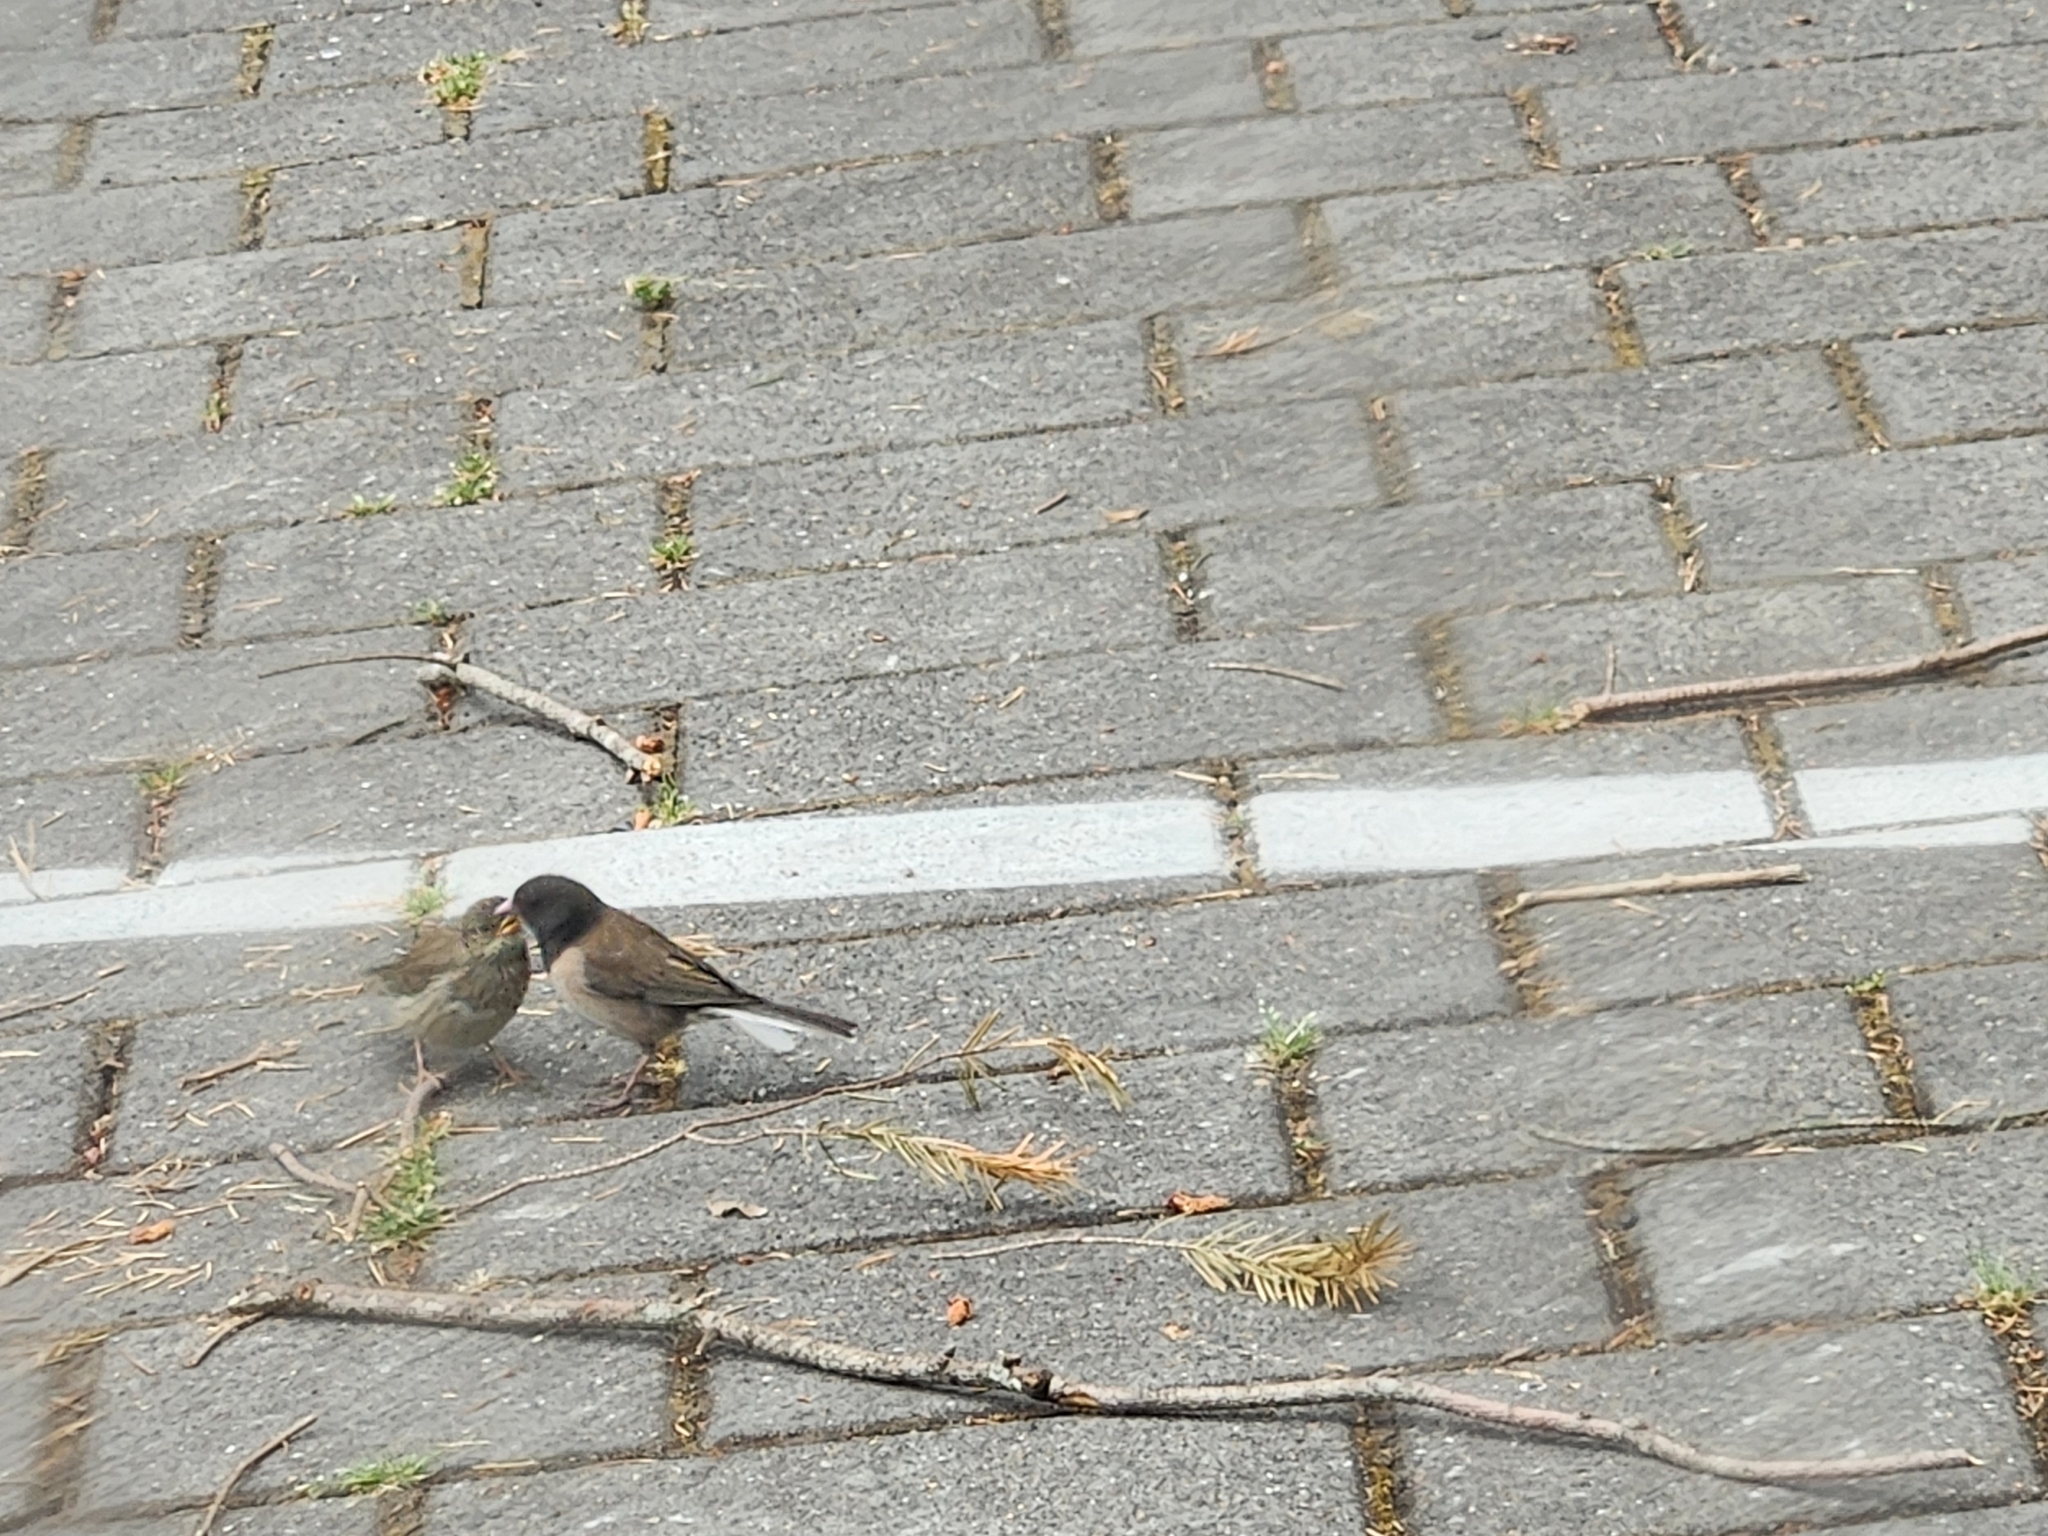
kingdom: Animalia
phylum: Chordata
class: Aves
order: Passeriformes
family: Passerellidae
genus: Junco
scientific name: Junco hyemalis
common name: Dark-eyed junco
